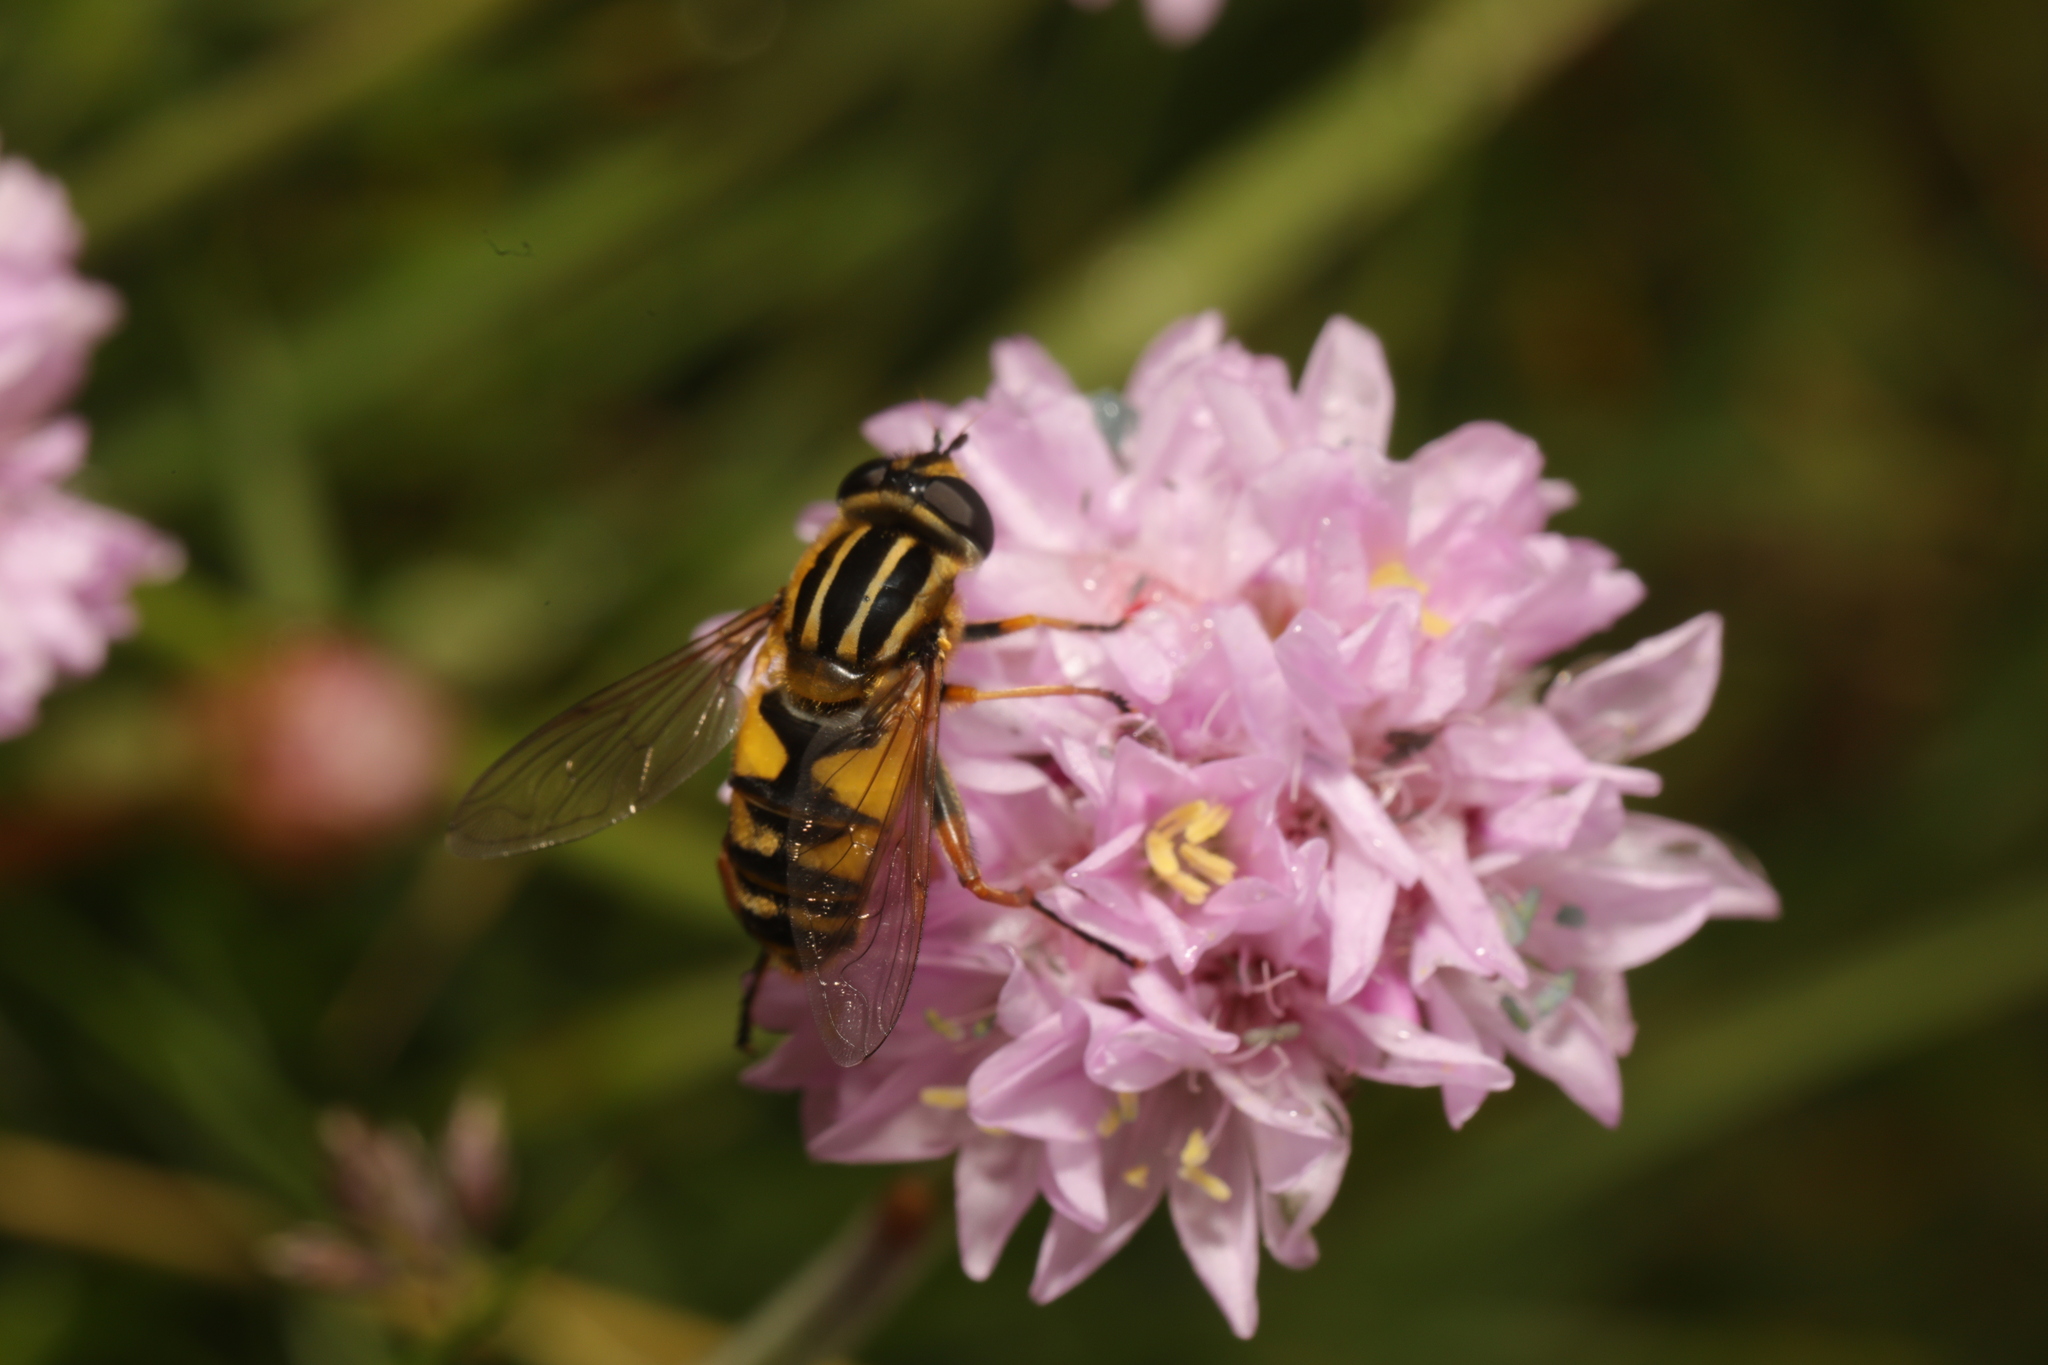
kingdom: Animalia
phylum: Arthropoda
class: Insecta
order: Diptera
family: Syrphidae
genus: Helophilus
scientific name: Helophilus pendulus
